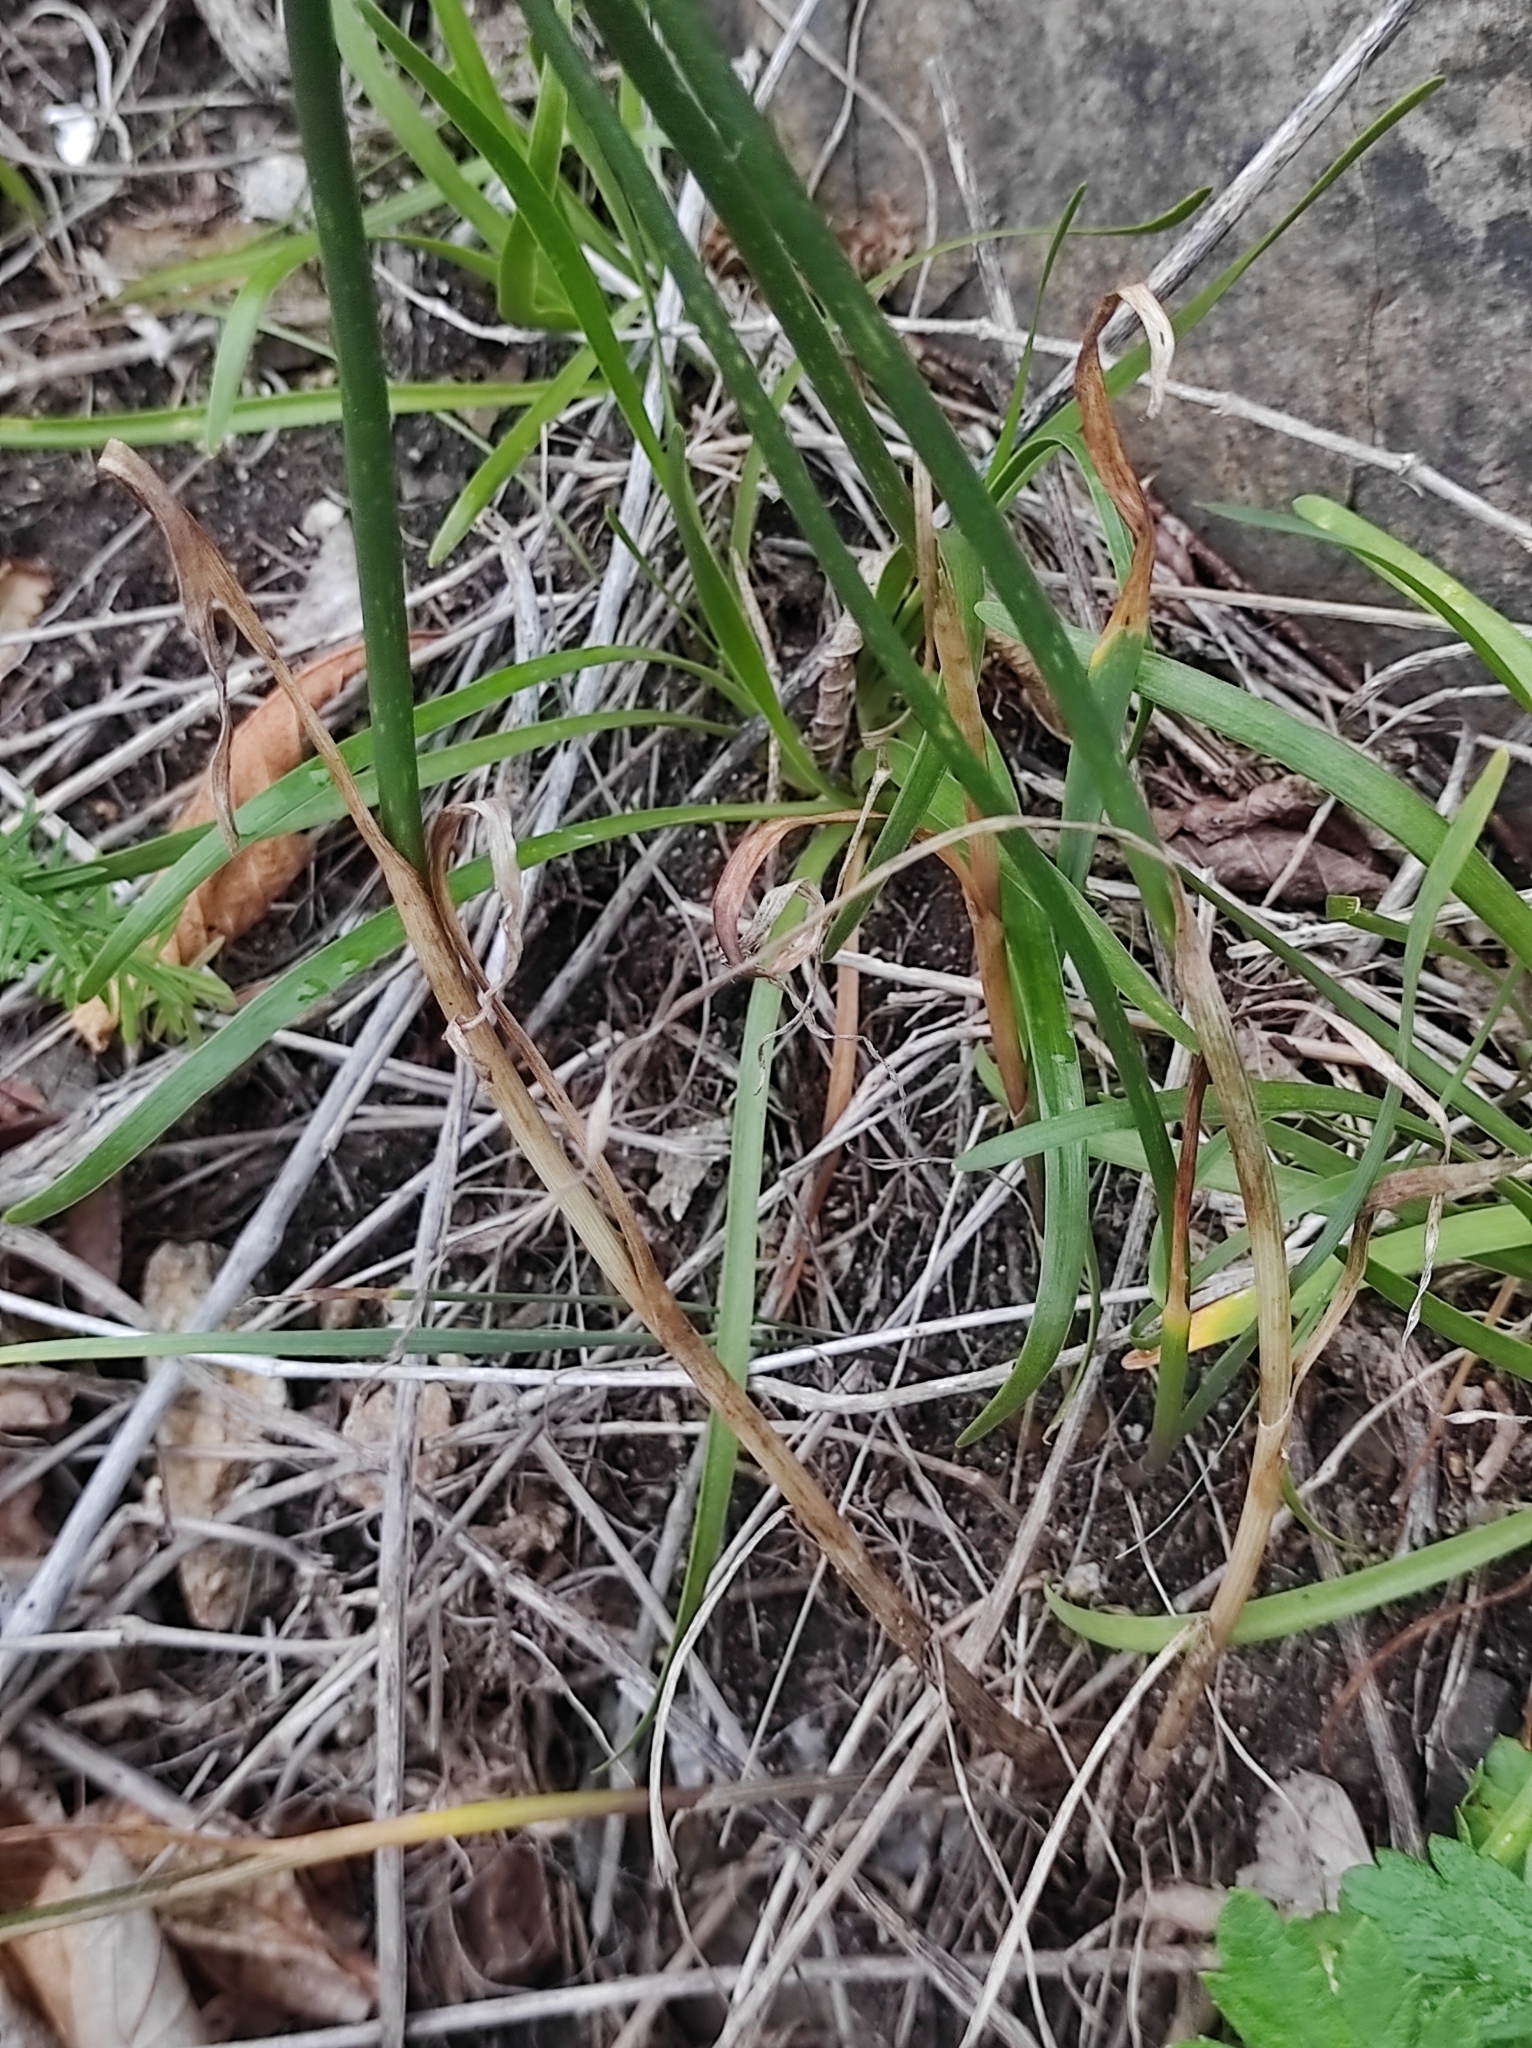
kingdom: Plantae
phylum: Tracheophyta
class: Liliopsida
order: Asparagales
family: Amaryllidaceae
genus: Allium
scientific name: Allium maackii
